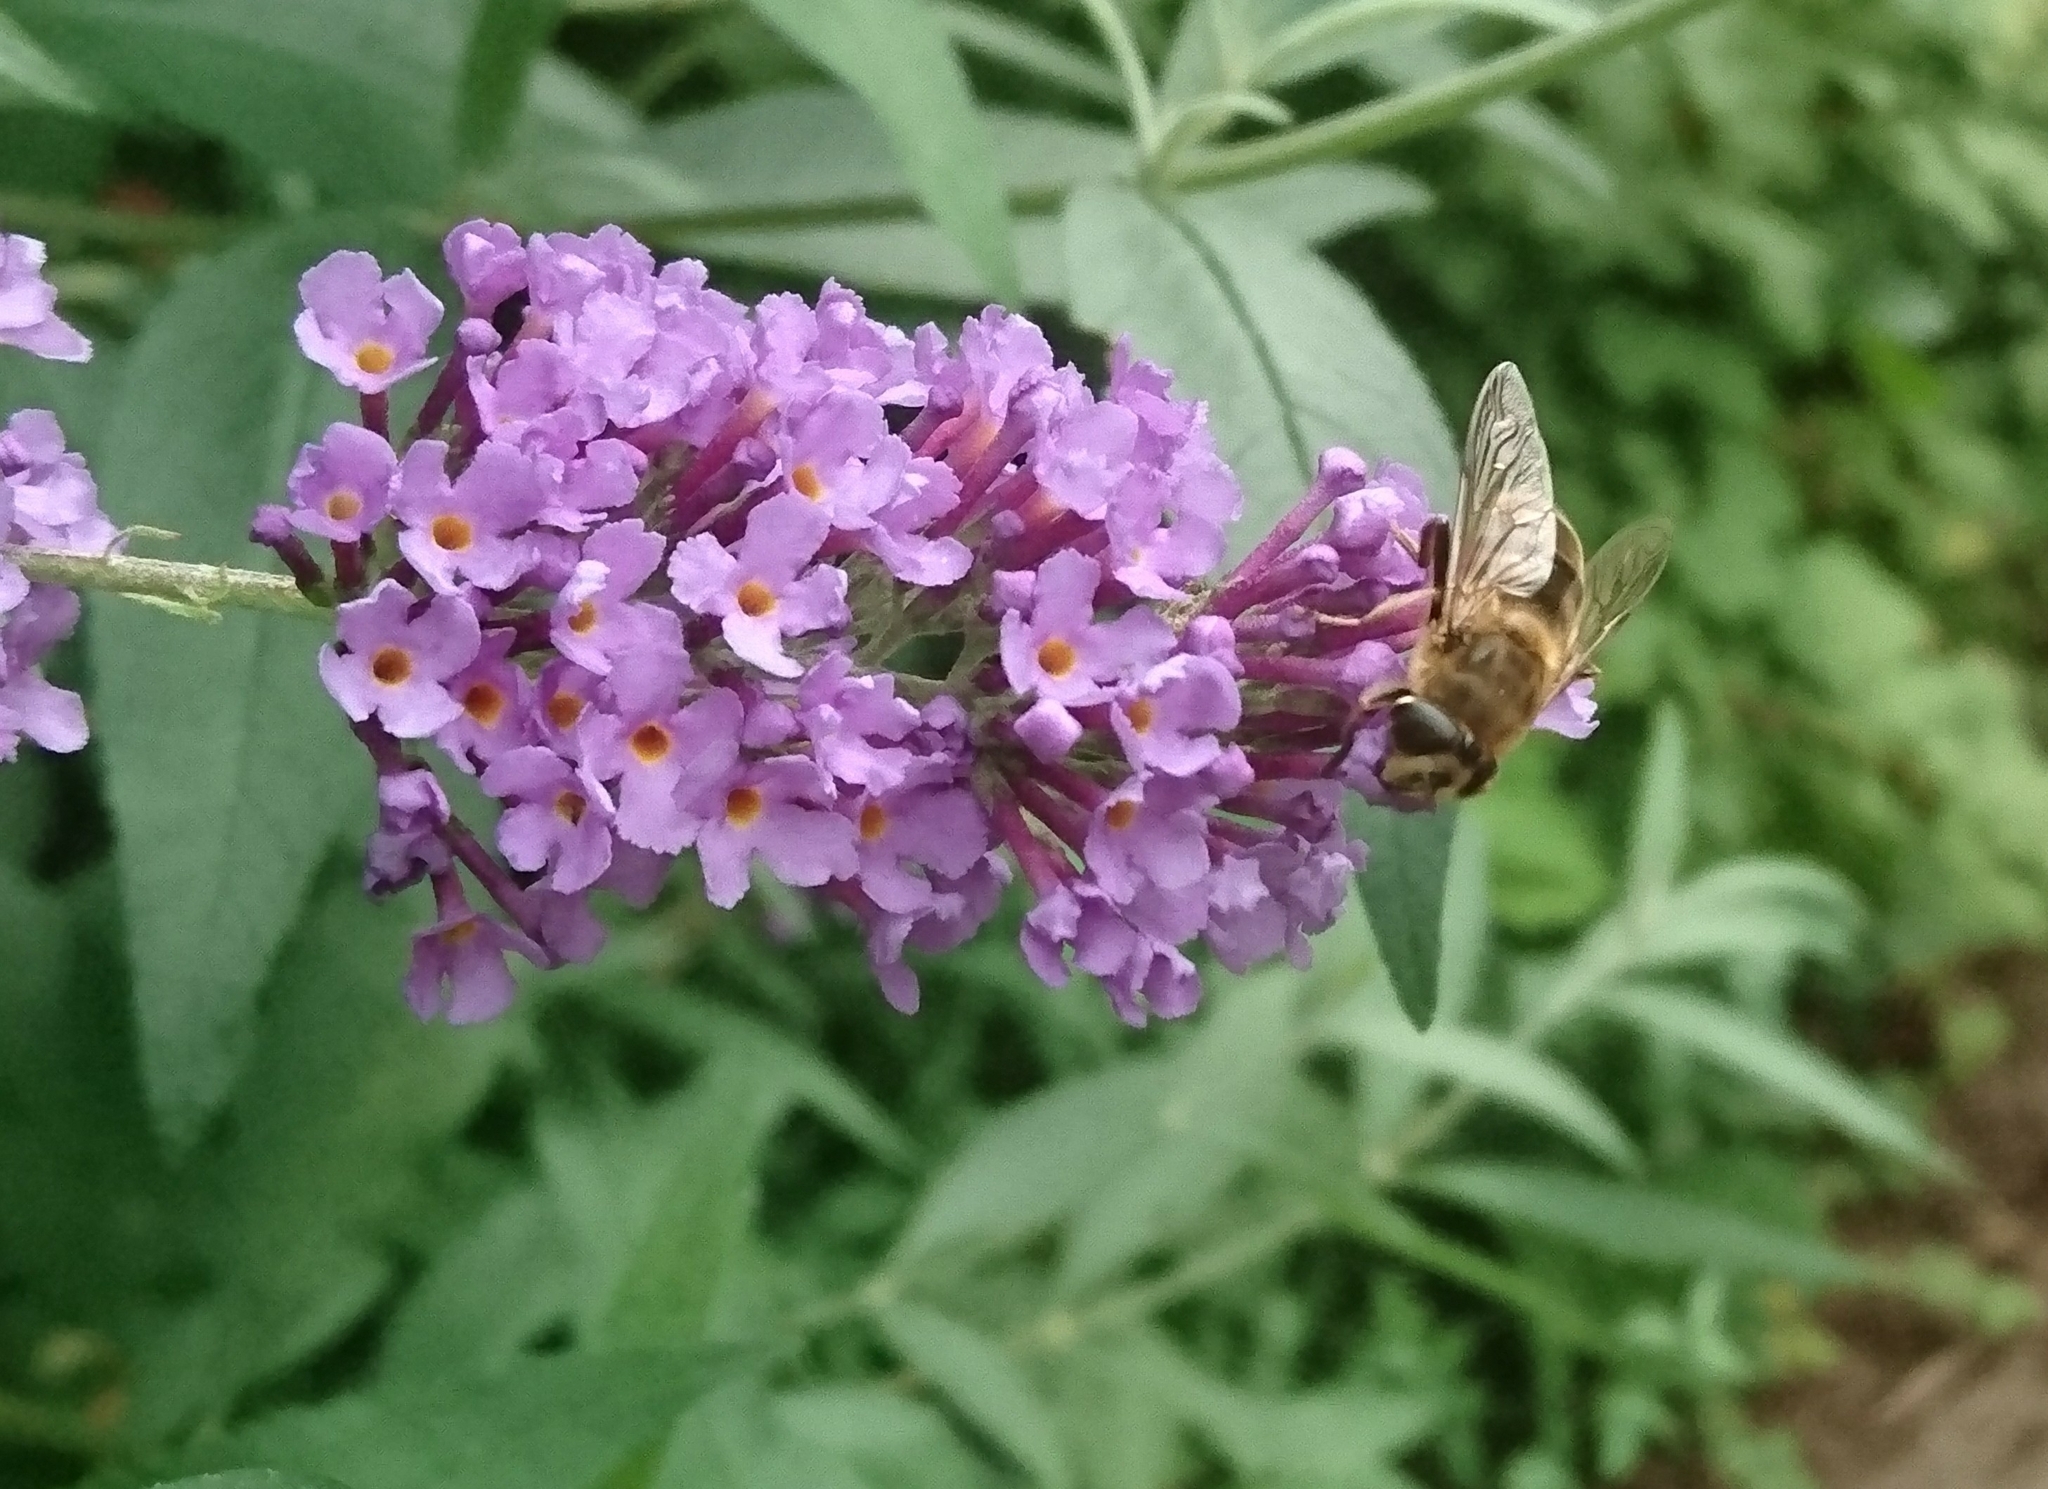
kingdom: Animalia
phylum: Arthropoda
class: Insecta
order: Diptera
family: Syrphidae
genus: Eristalis
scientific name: Eristalis tenax
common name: Drone fly
